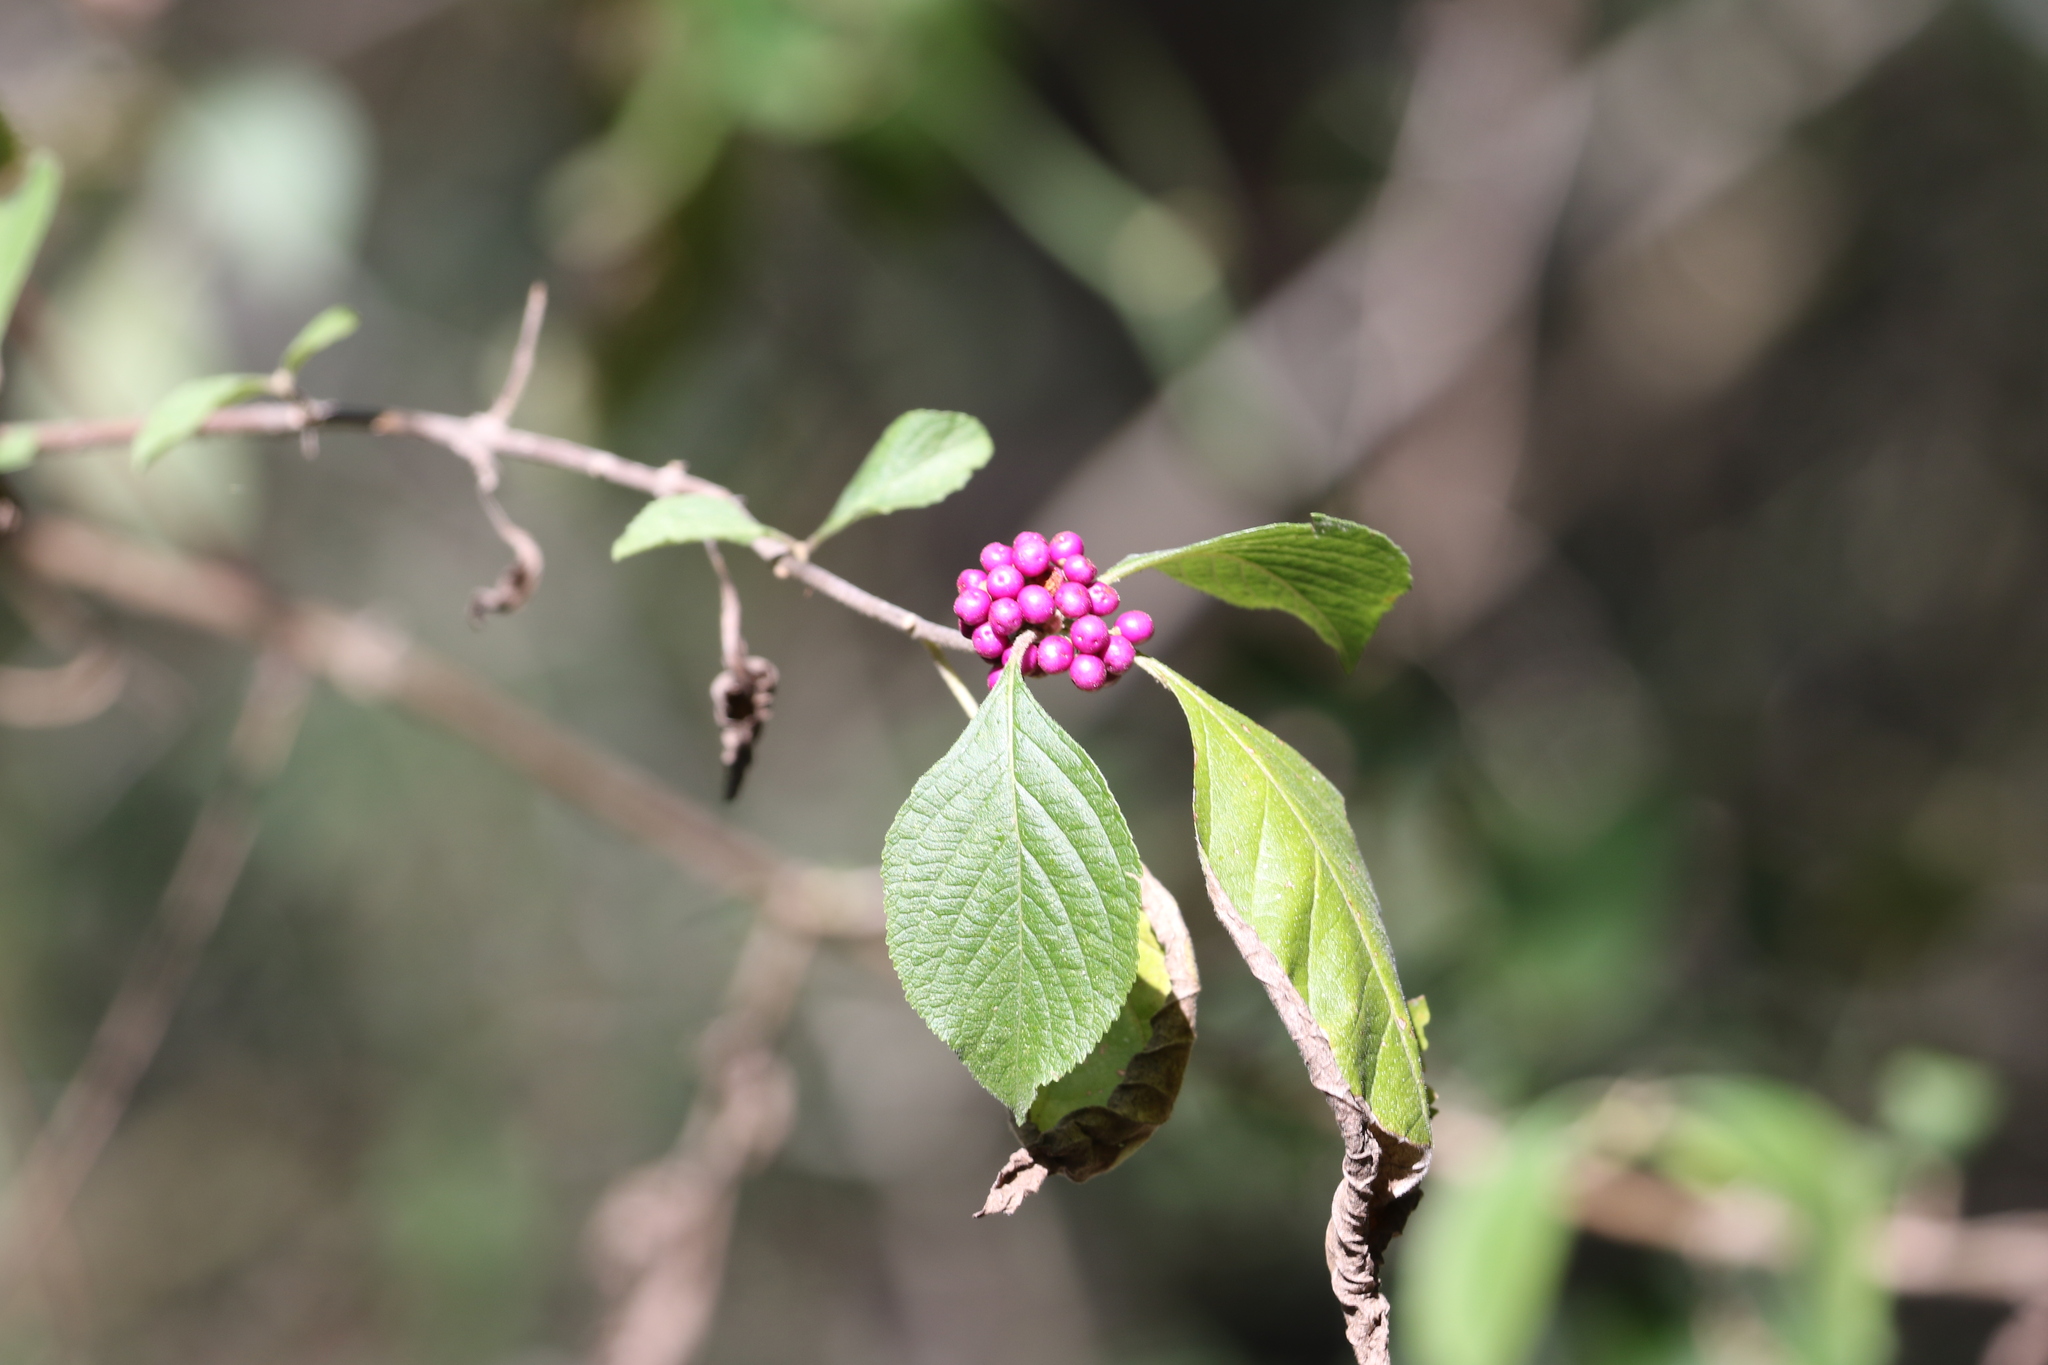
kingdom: Plantae
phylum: Tracheophyta
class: Magnoliopsida
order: Lamiales
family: Lamiaceae
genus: Callicarpa
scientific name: Callicarpa americana
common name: American beautyberry
